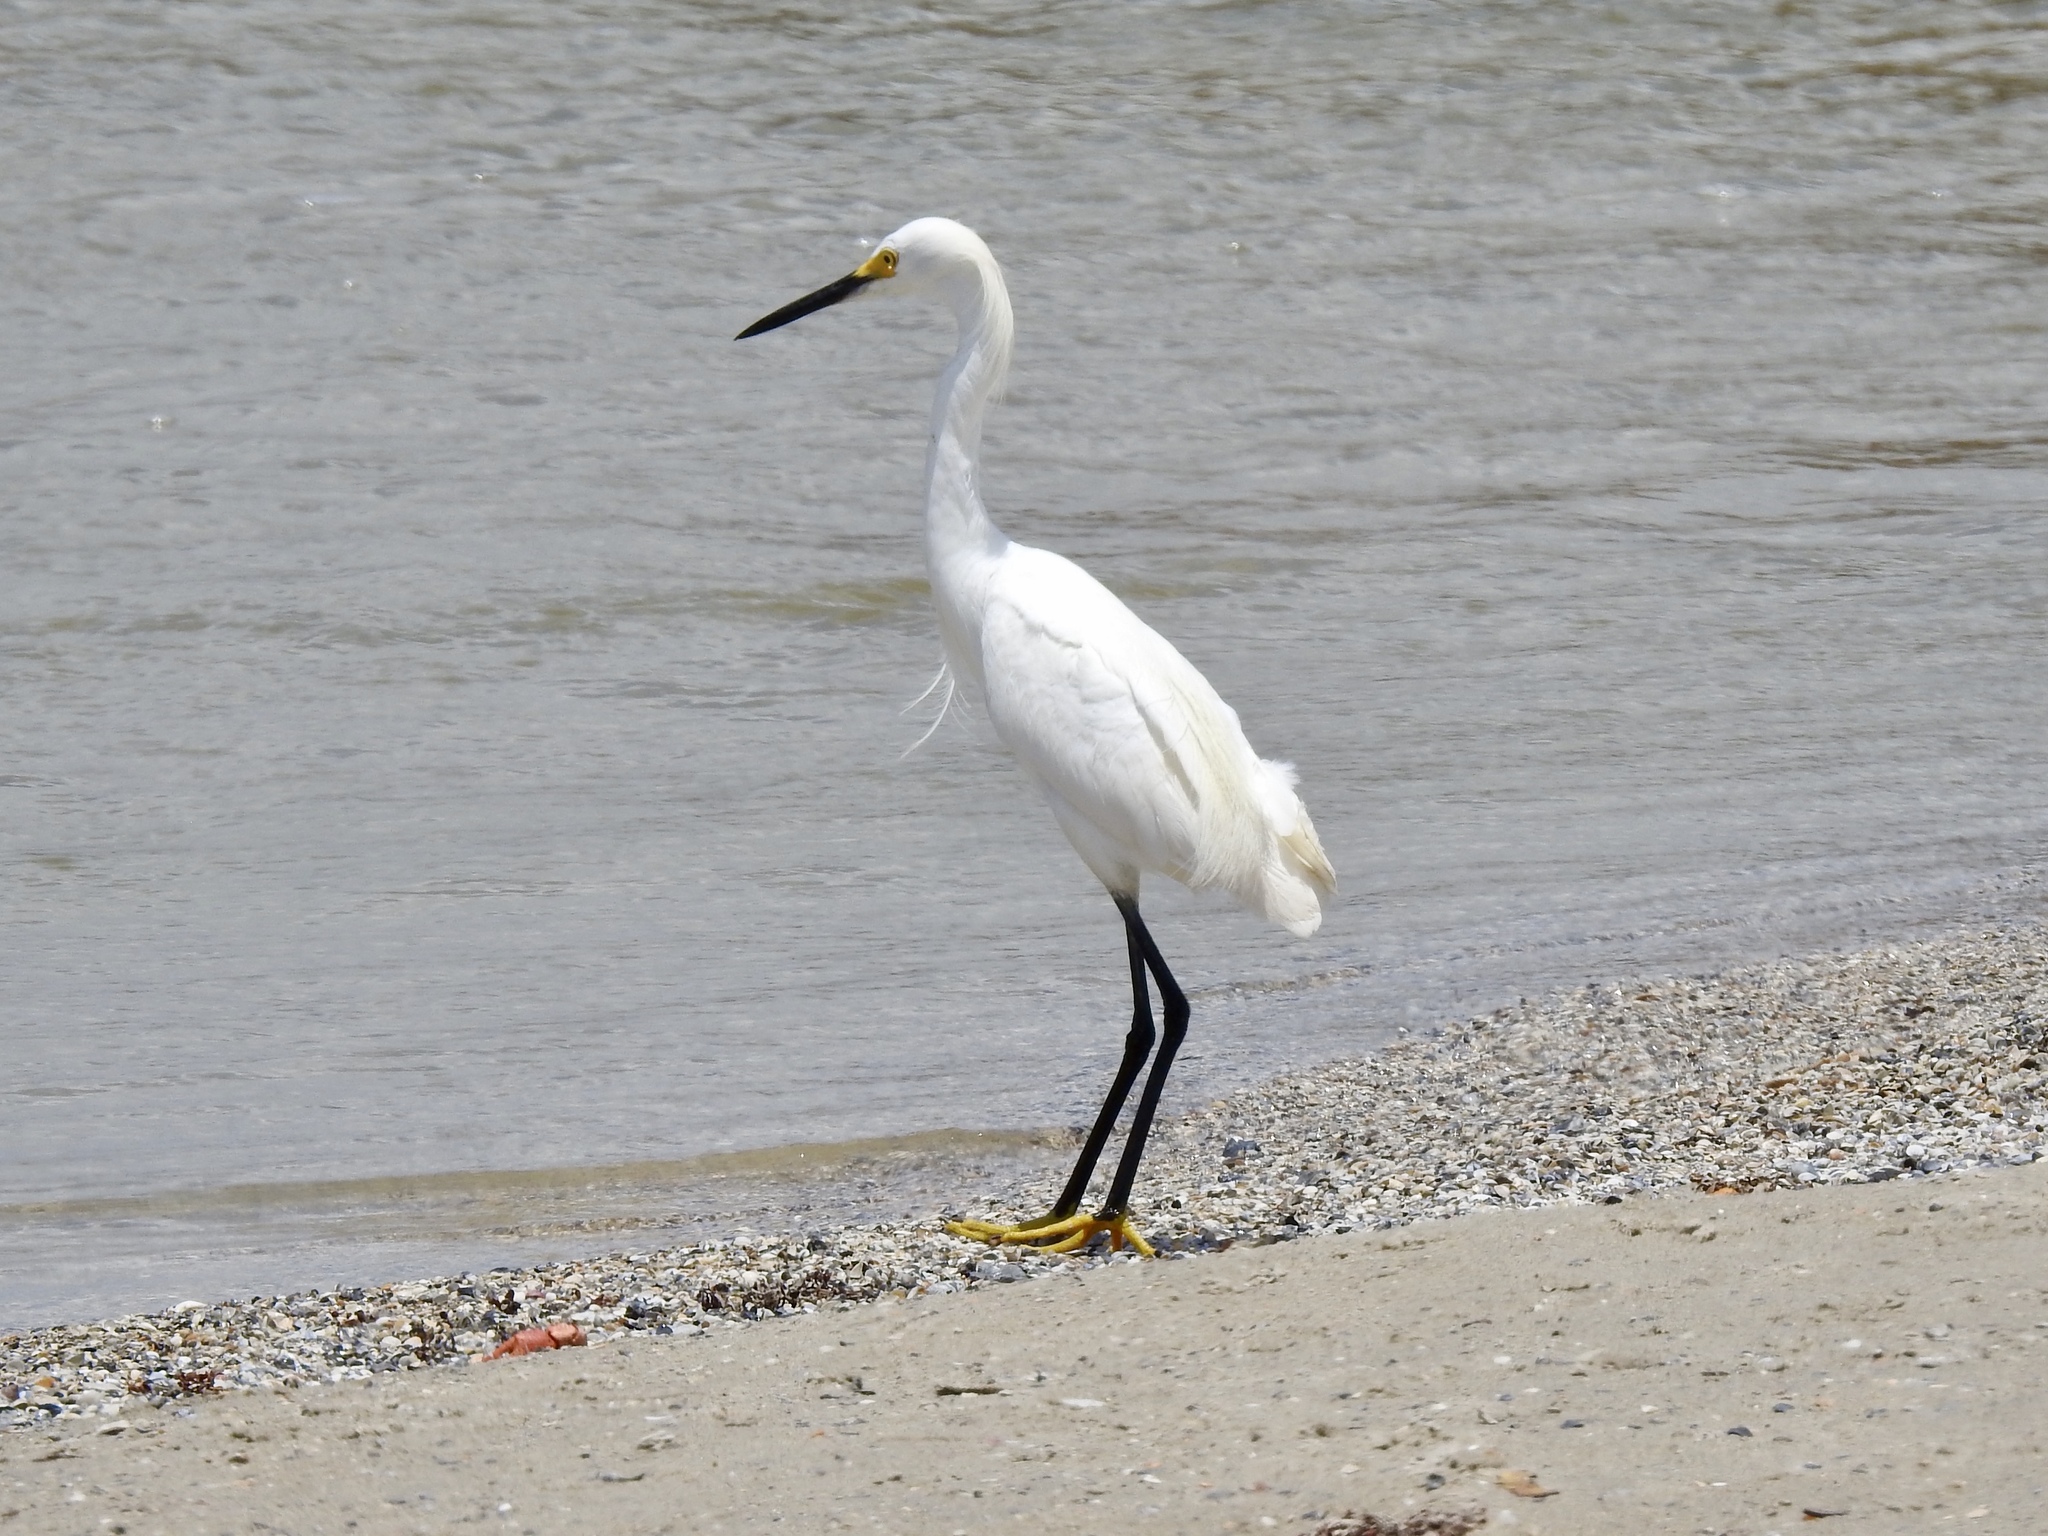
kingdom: Animalia
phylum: Chordata
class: Aves
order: Pelecaniformes
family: Ardeidae
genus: Egretta
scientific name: Egretta thula
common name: Snowy egret
